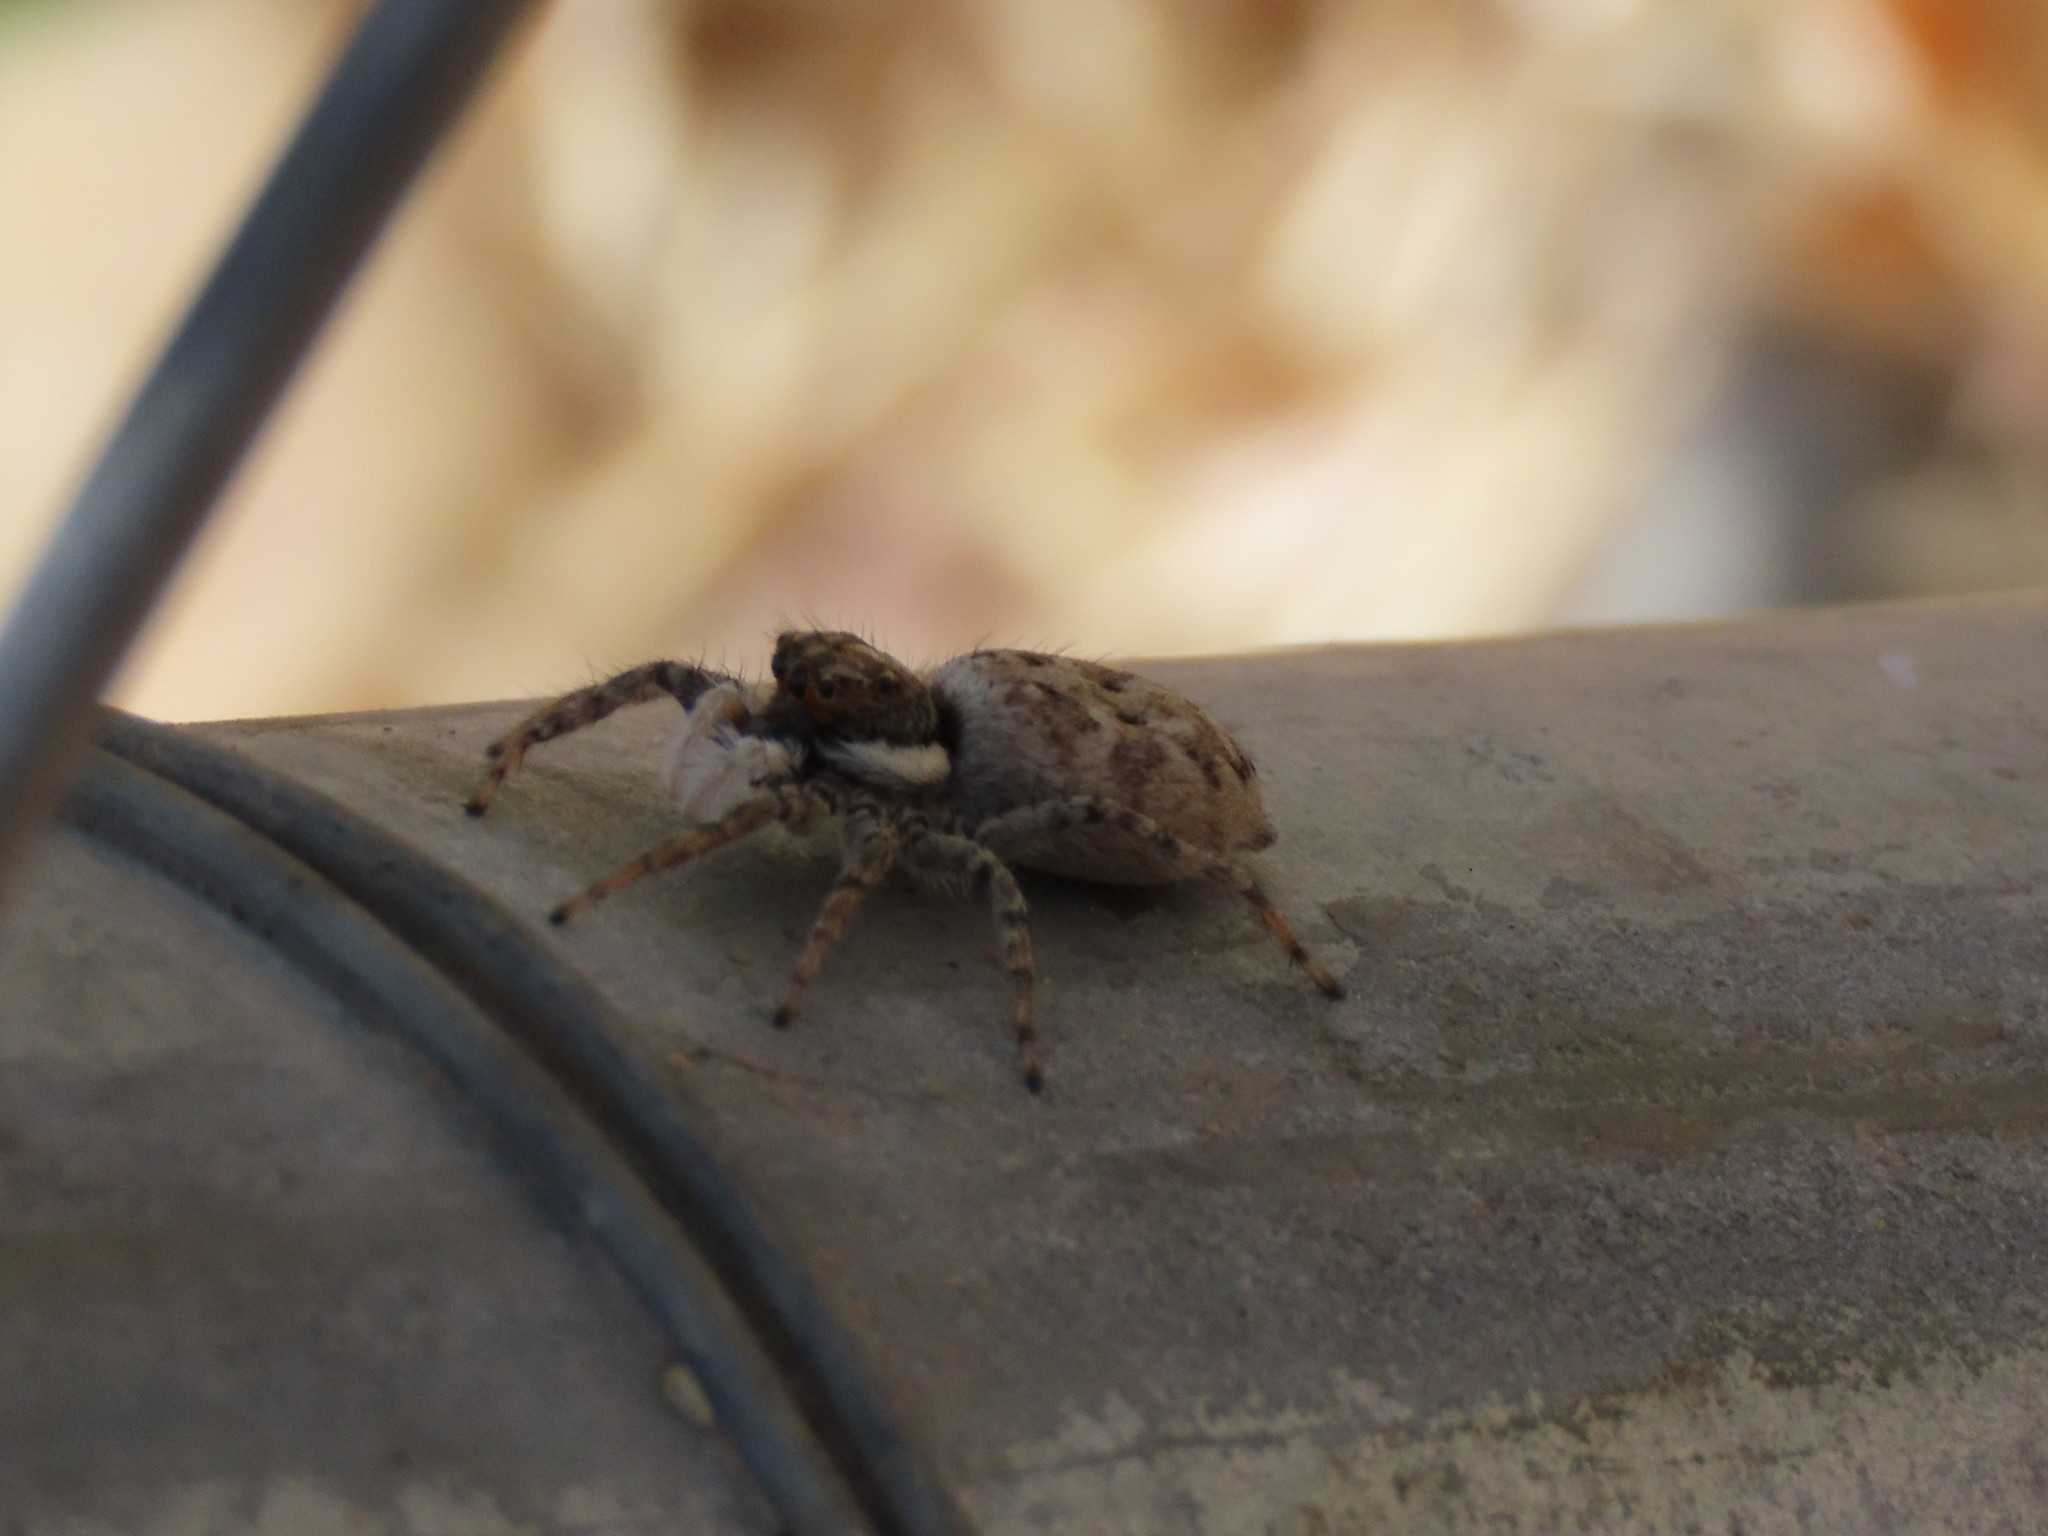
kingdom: Animalia
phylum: Arthropoda
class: Arachnida
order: Araneae
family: Salticidae
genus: Menemerus
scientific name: Menemerus semilimbatus
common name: Jumping spider
